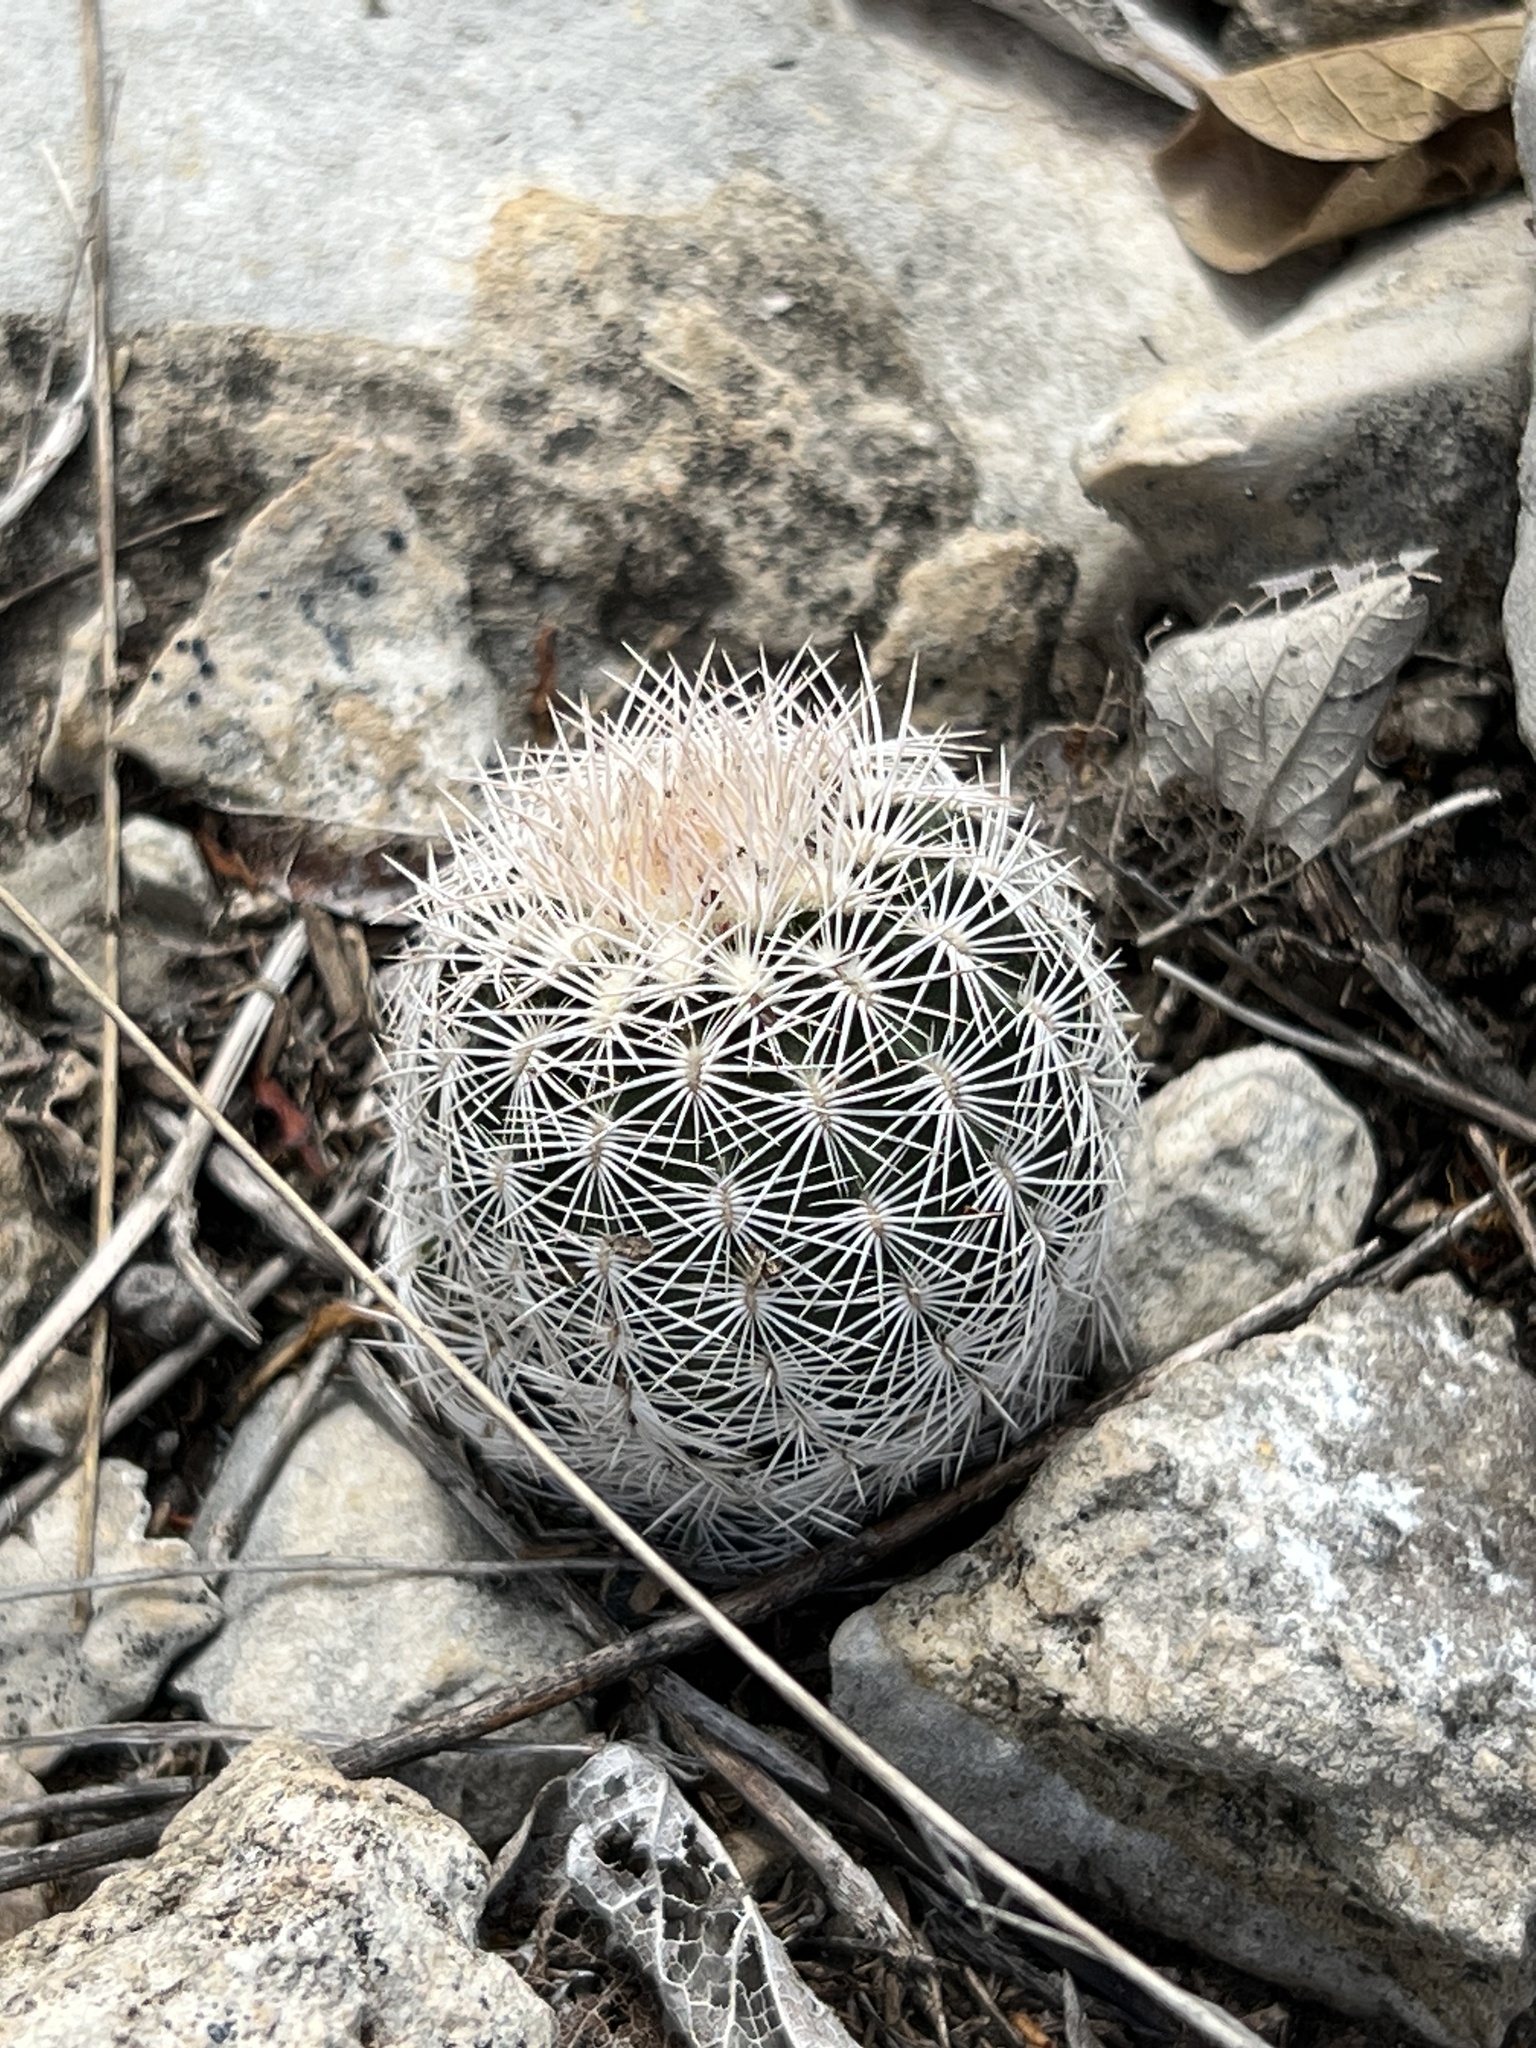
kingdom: Plantae
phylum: Tracheophyta
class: Magnoliopsida
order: Caryophyllales
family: Cactaceae
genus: Echinocereus
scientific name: Echinocereus reichenbachii
